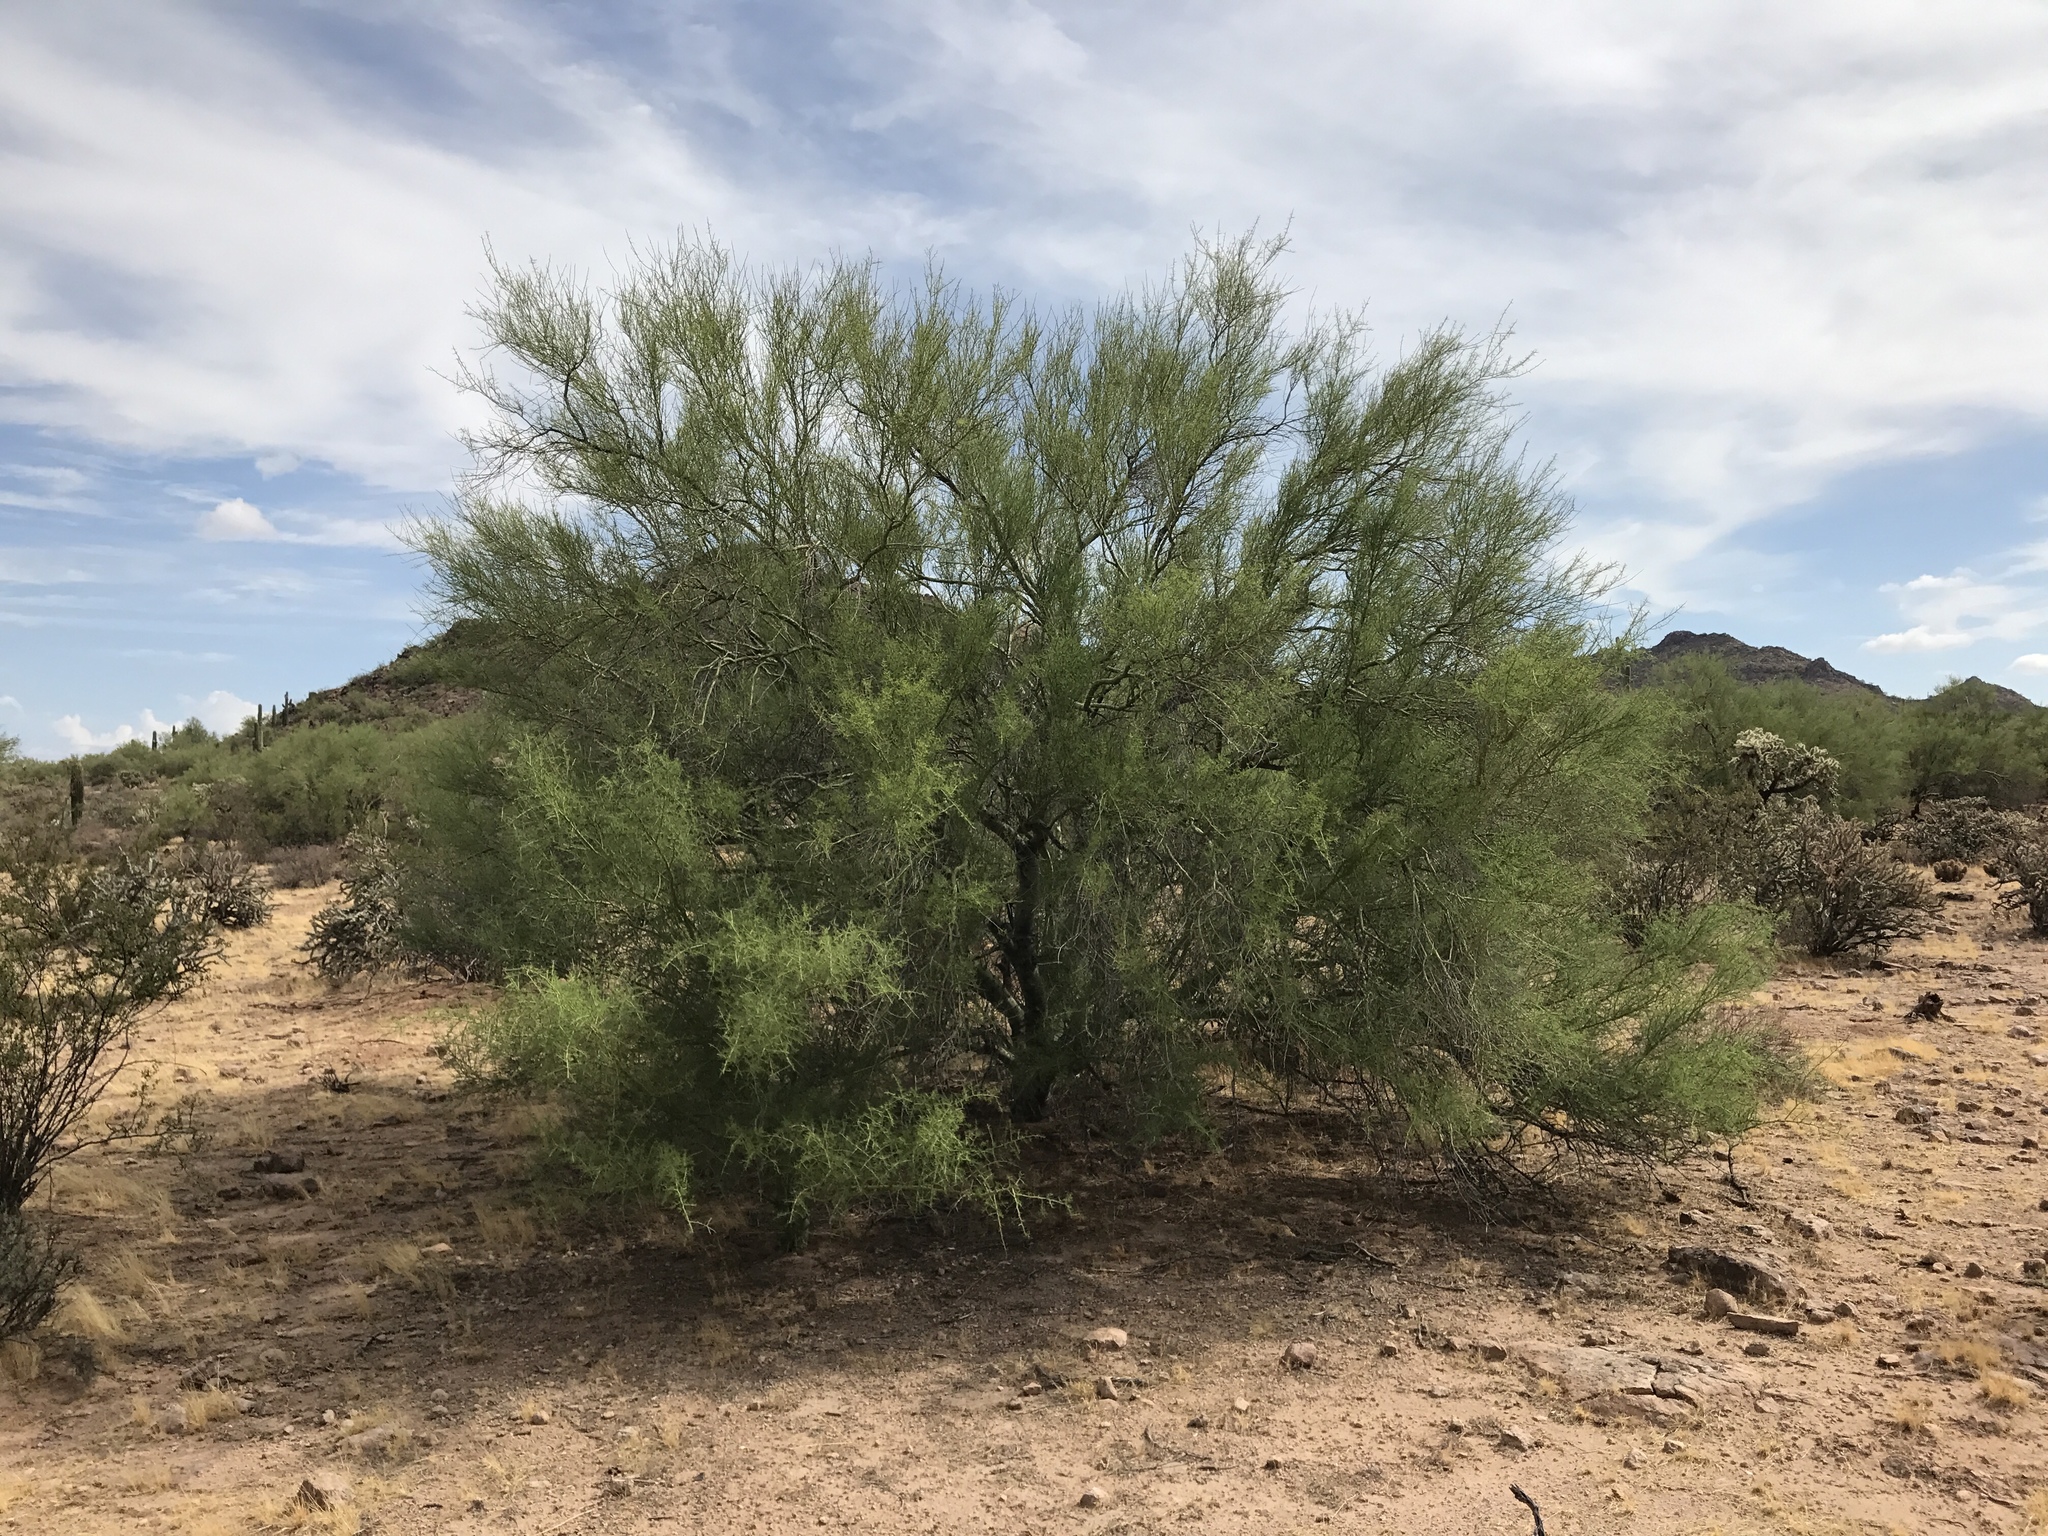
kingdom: Plantae
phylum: Tracheophyta
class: Magnoliopsida
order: Fabales
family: Fabaceae
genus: Parkinsonia
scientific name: Parkinsonia microphylla
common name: Yellow paloverde
